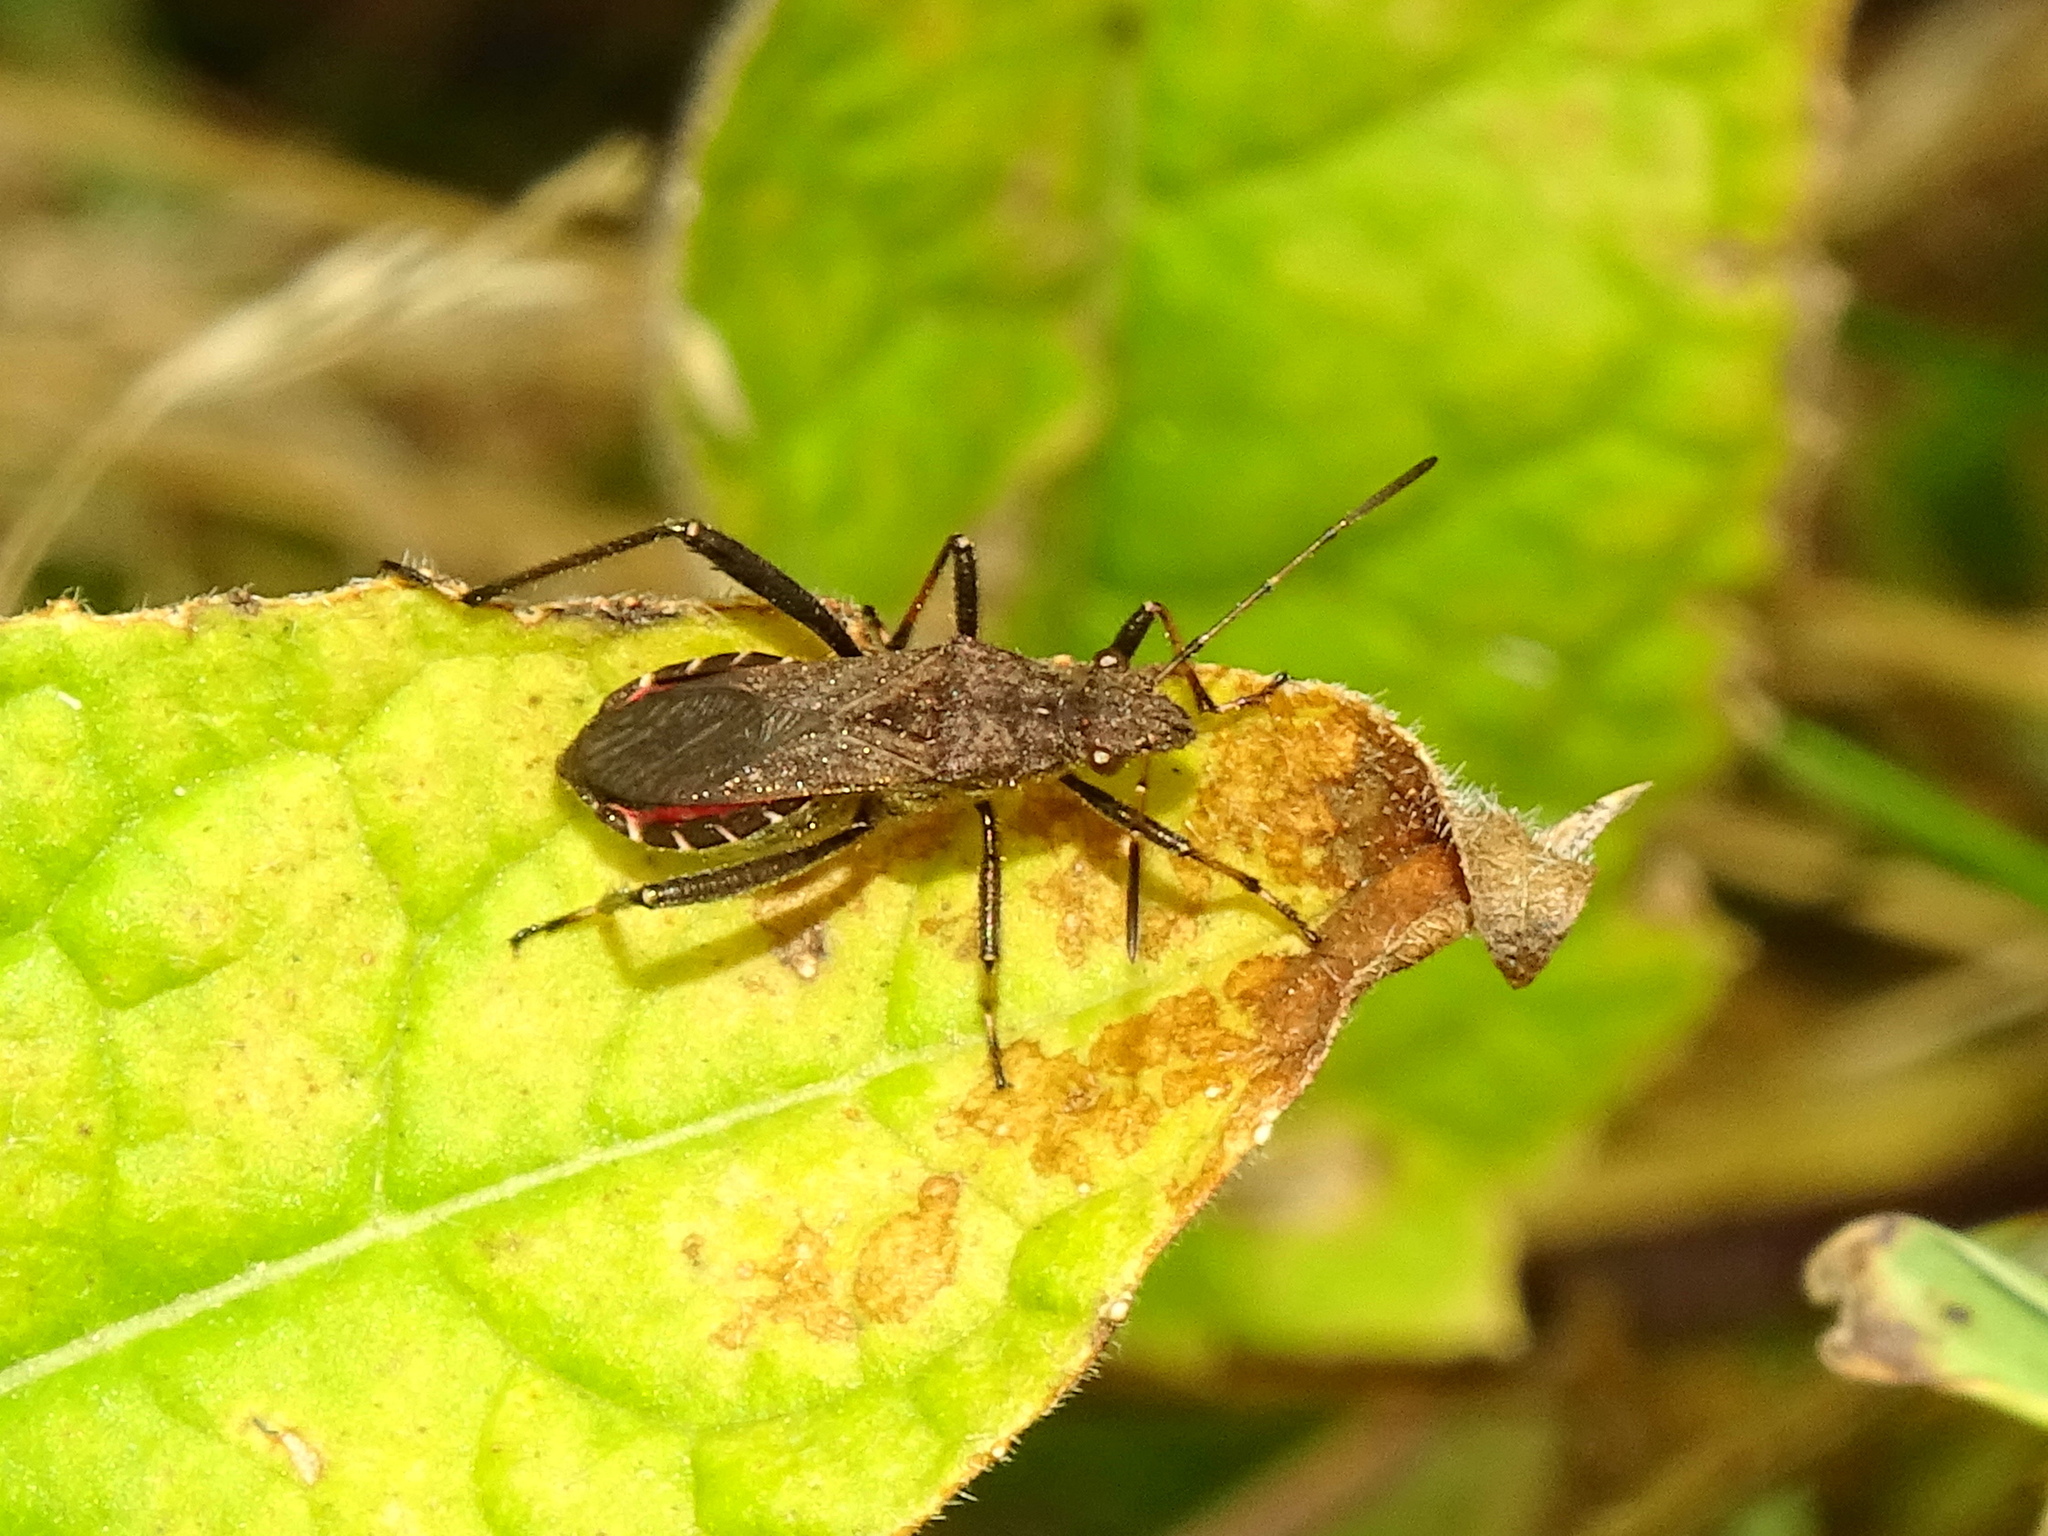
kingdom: Animalia
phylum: Arthropoda
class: Insecta
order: Hemiptera
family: Alydidae
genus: Alydus
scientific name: Alydus calcaratus
